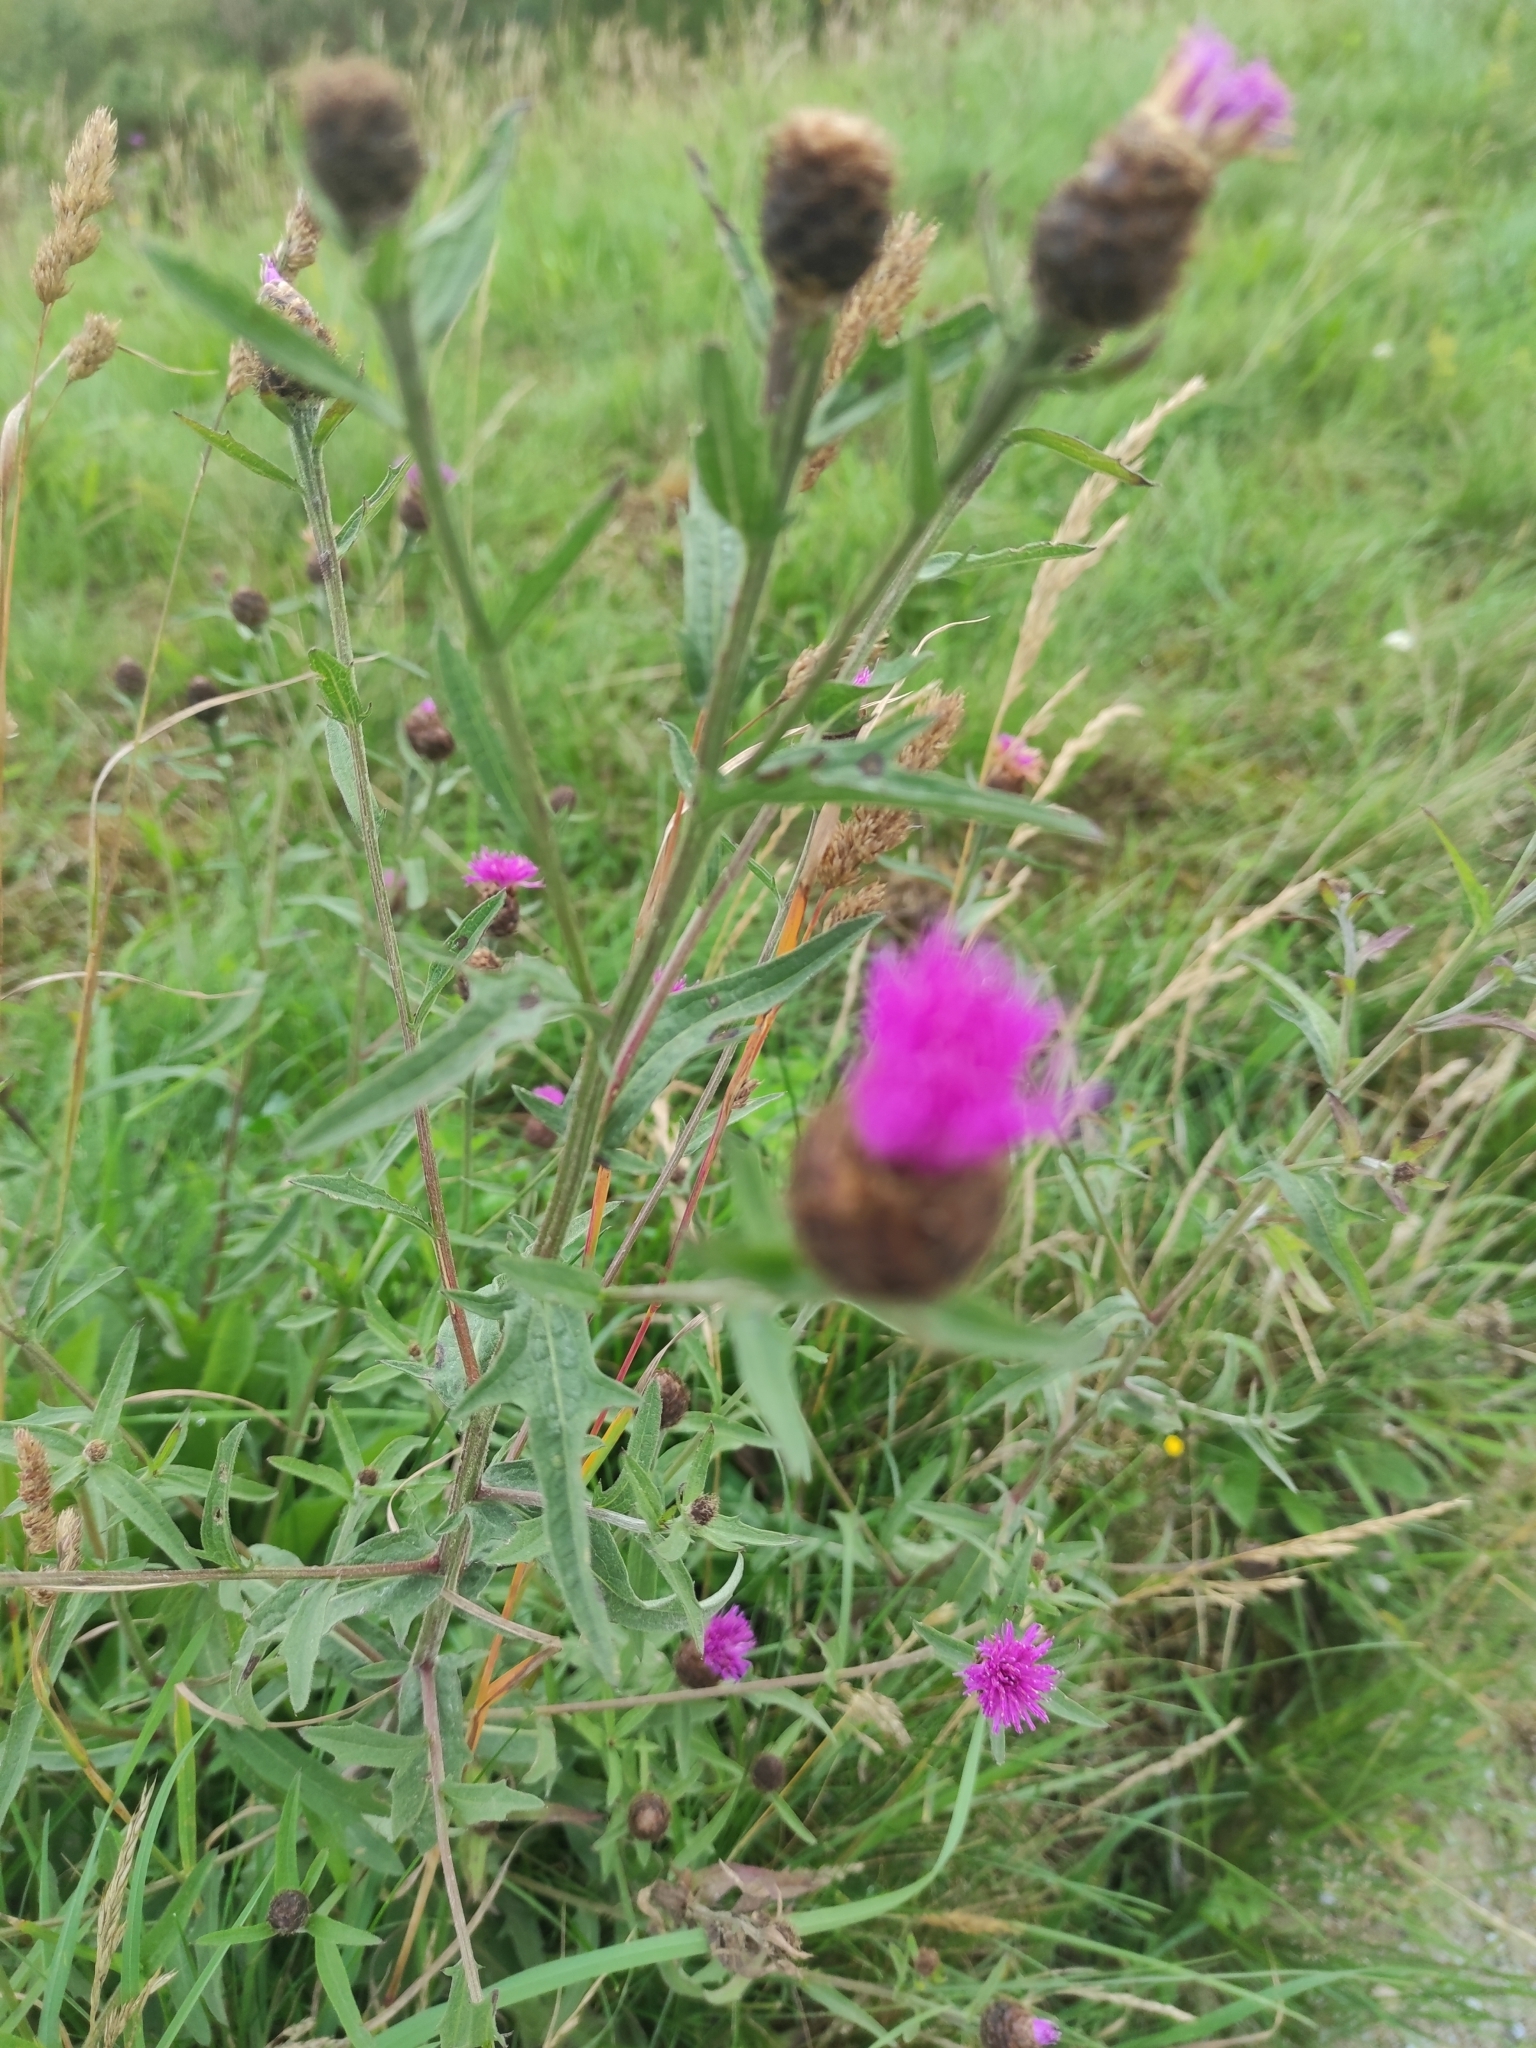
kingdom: Plantae
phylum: Tracheophyta
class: Magnoliopsida
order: Asterales
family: Asteraceae
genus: Centaurea
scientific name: Centaurea nigra
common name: Lesser knapweed
